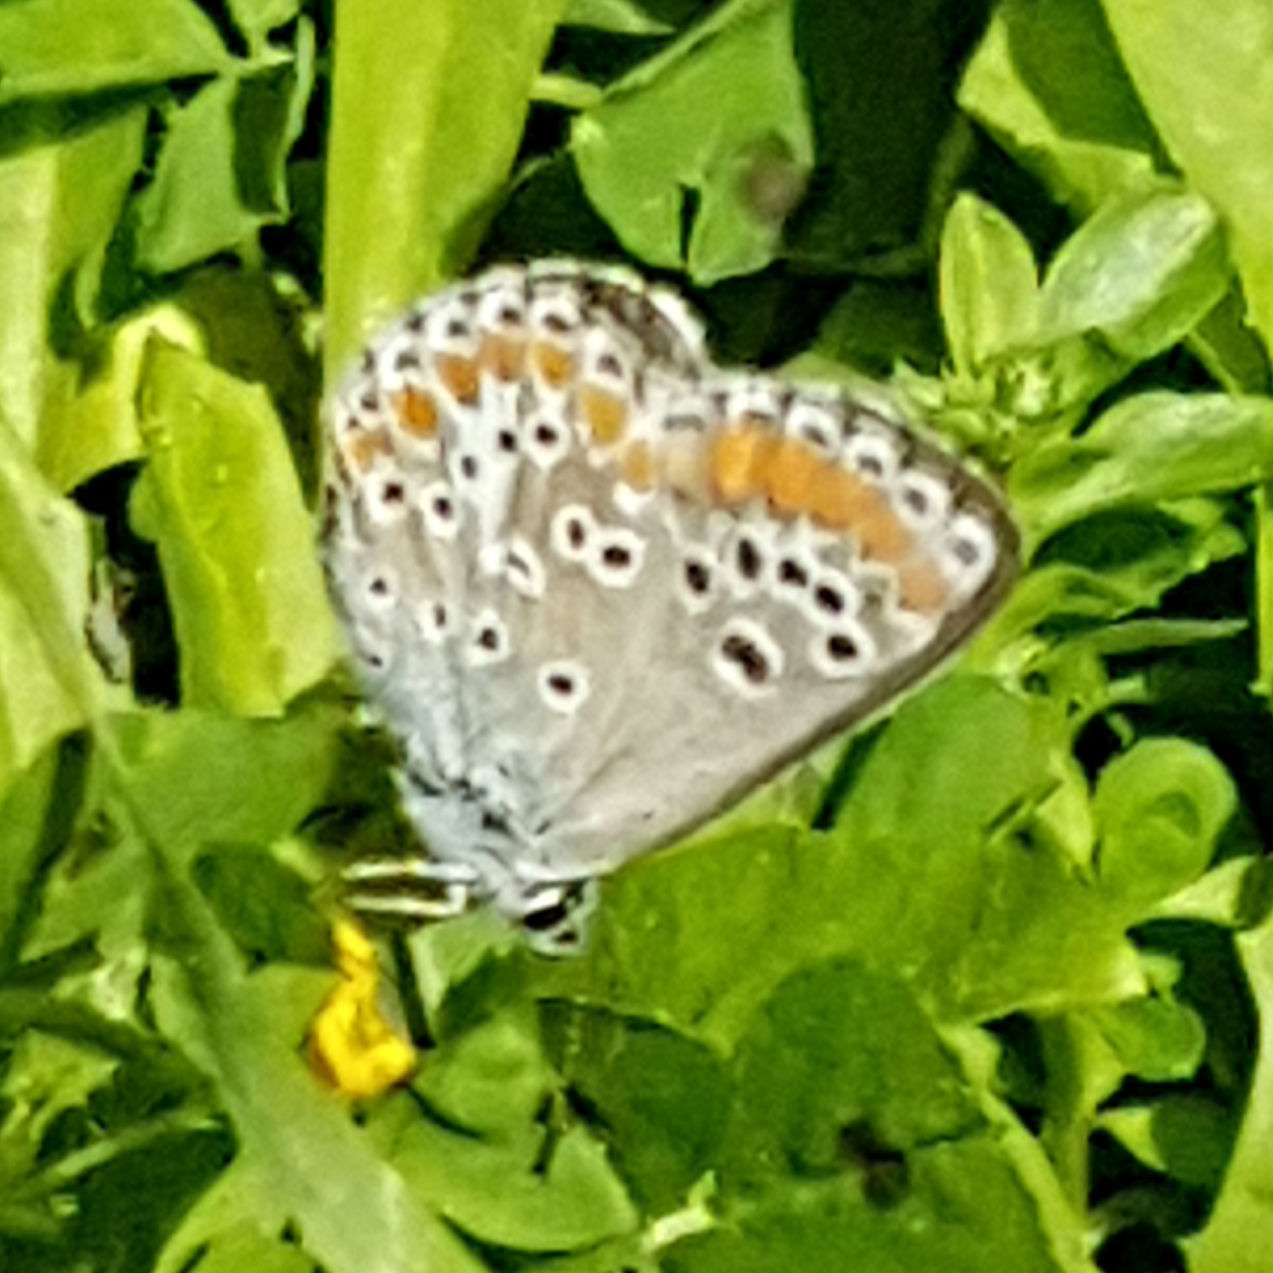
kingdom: Animalia
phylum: Arthropoda
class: Insecta
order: Lepidoptera
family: Lycaenidae
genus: Aricia
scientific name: Aricia agestis
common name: Brown argus
